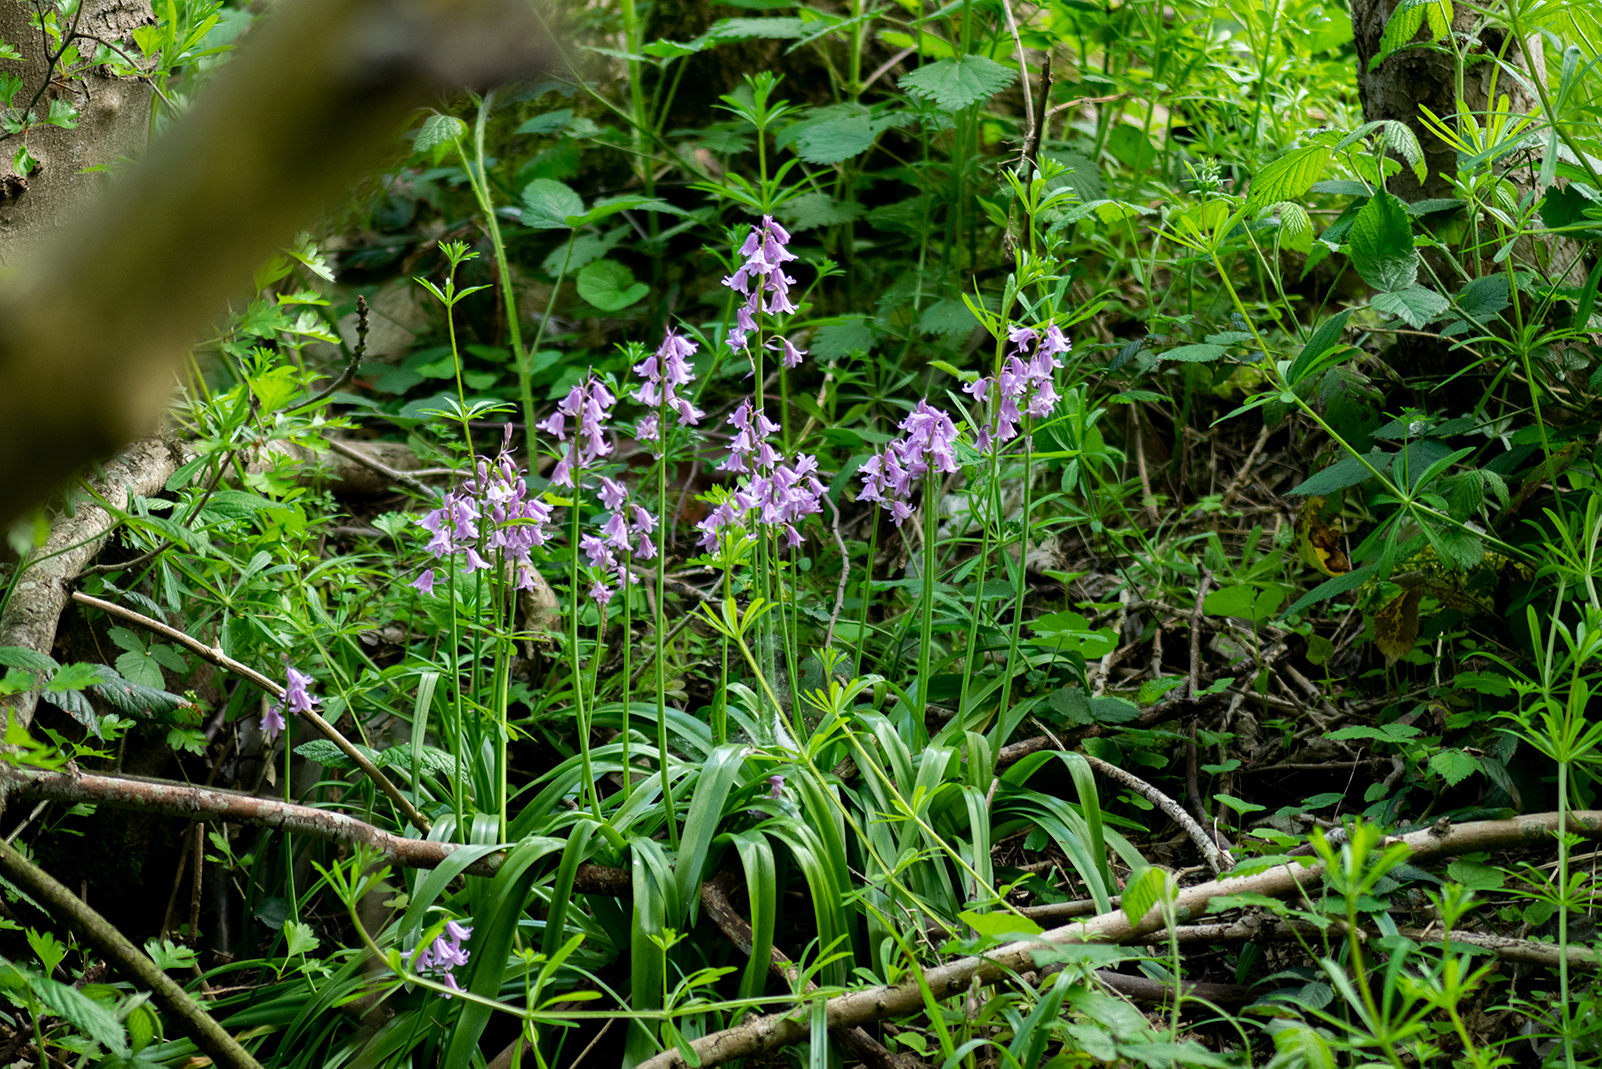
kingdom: Plantae
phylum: Tracheophyta
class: Liliopsida
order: Asparagales
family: Asparagaceae
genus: Hyacinthoides
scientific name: Hyacinthoides massartiana
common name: Hyacinthoides
